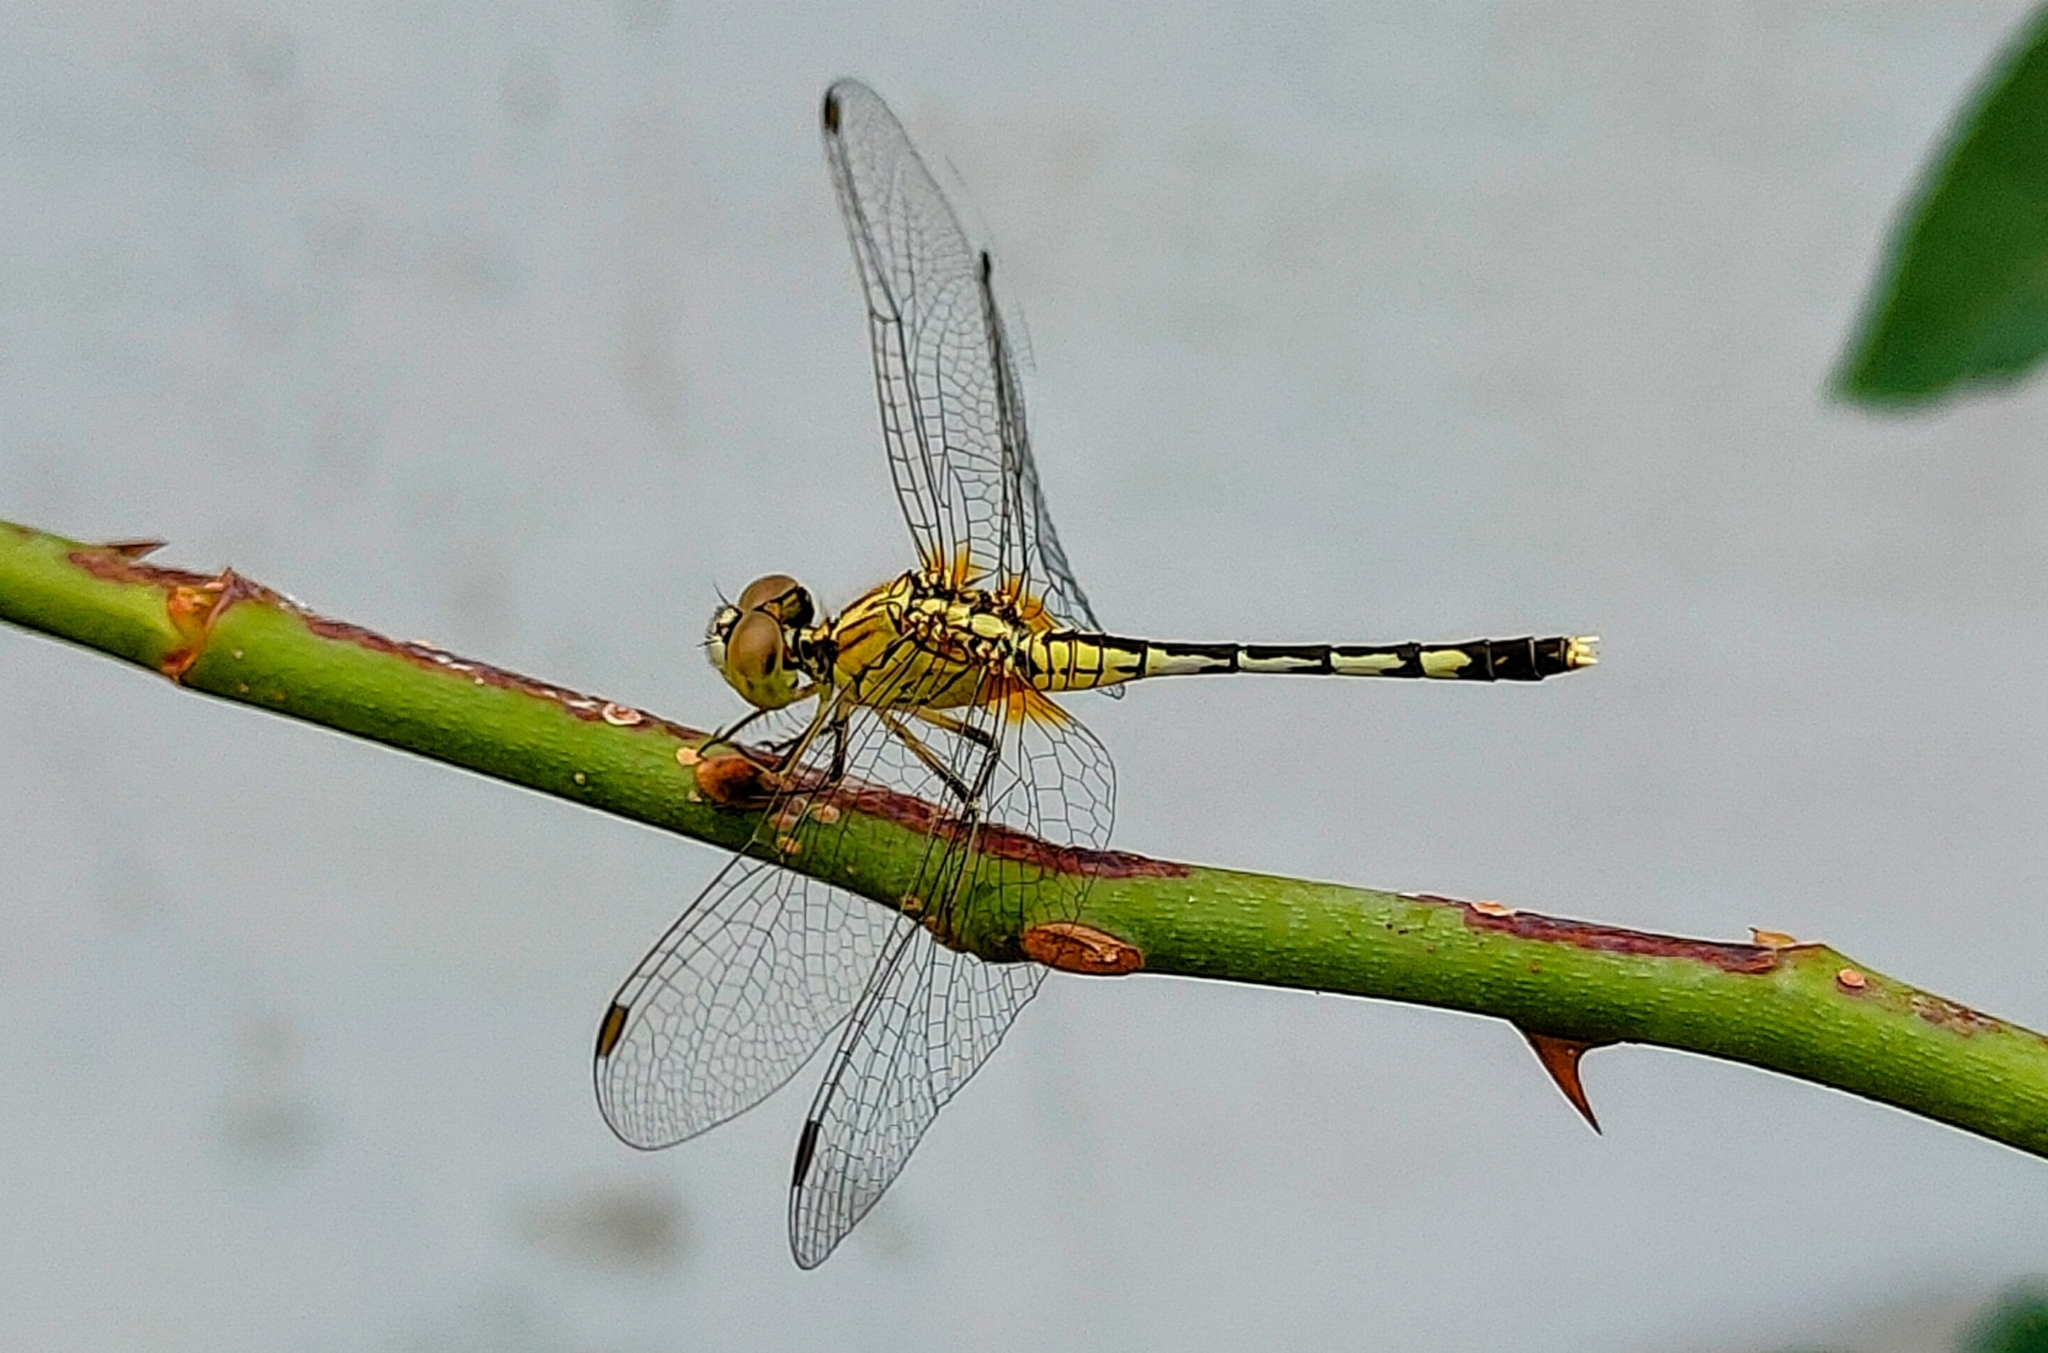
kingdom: Animalia
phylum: Arthropoda
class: Insecta
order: Odonata
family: Libellulidae
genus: Diplacodes
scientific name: Diplacodes trivialis
